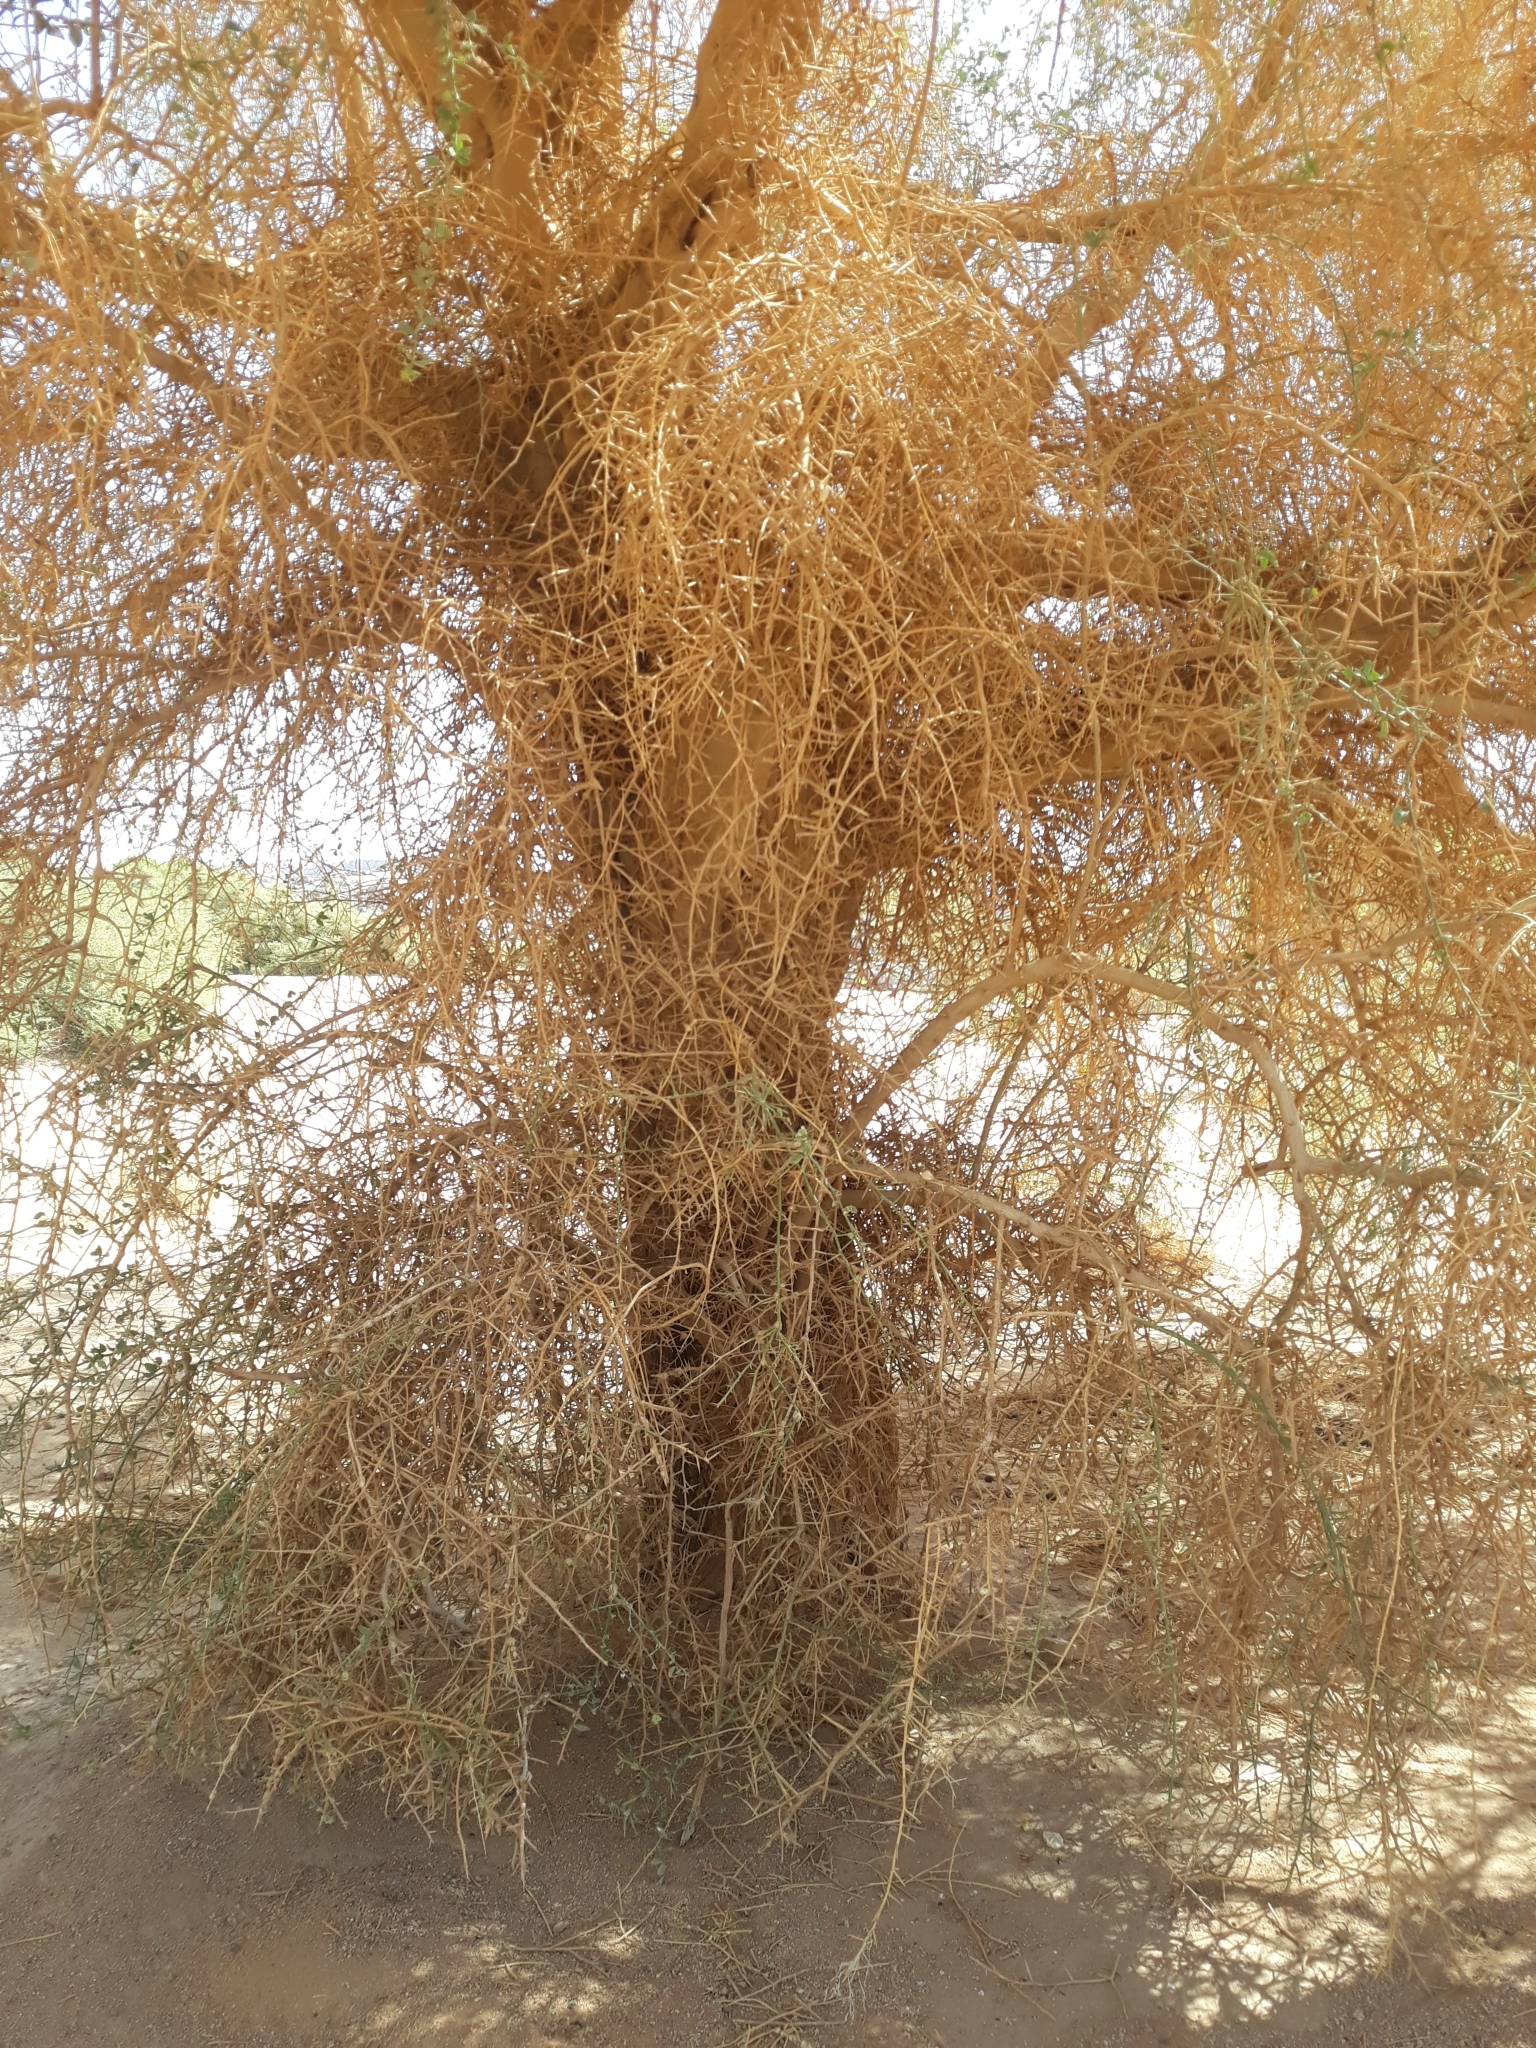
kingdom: Plantae
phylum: Tracheophyta
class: Magnoliopsida
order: Zygophyllales
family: Zygophyllaceae
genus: Balanites
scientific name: Balanites aegyptiaca
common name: Balanites
